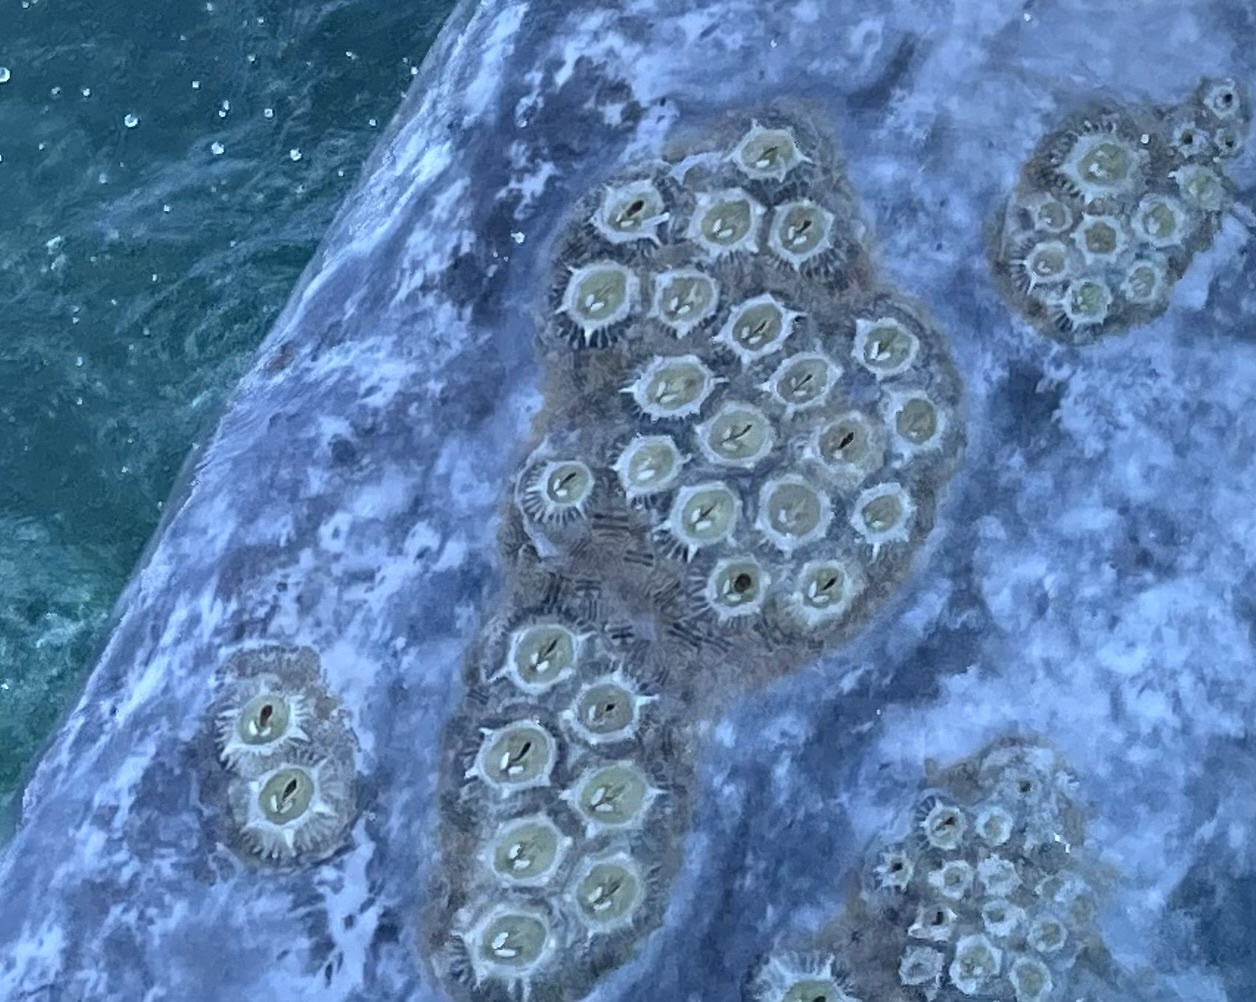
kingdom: Animalia
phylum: Arthropoda
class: Maxillopoda
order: Sessilia
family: Coronulidae
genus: Cryptolepas
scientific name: Cryptolepas rhachianecti
